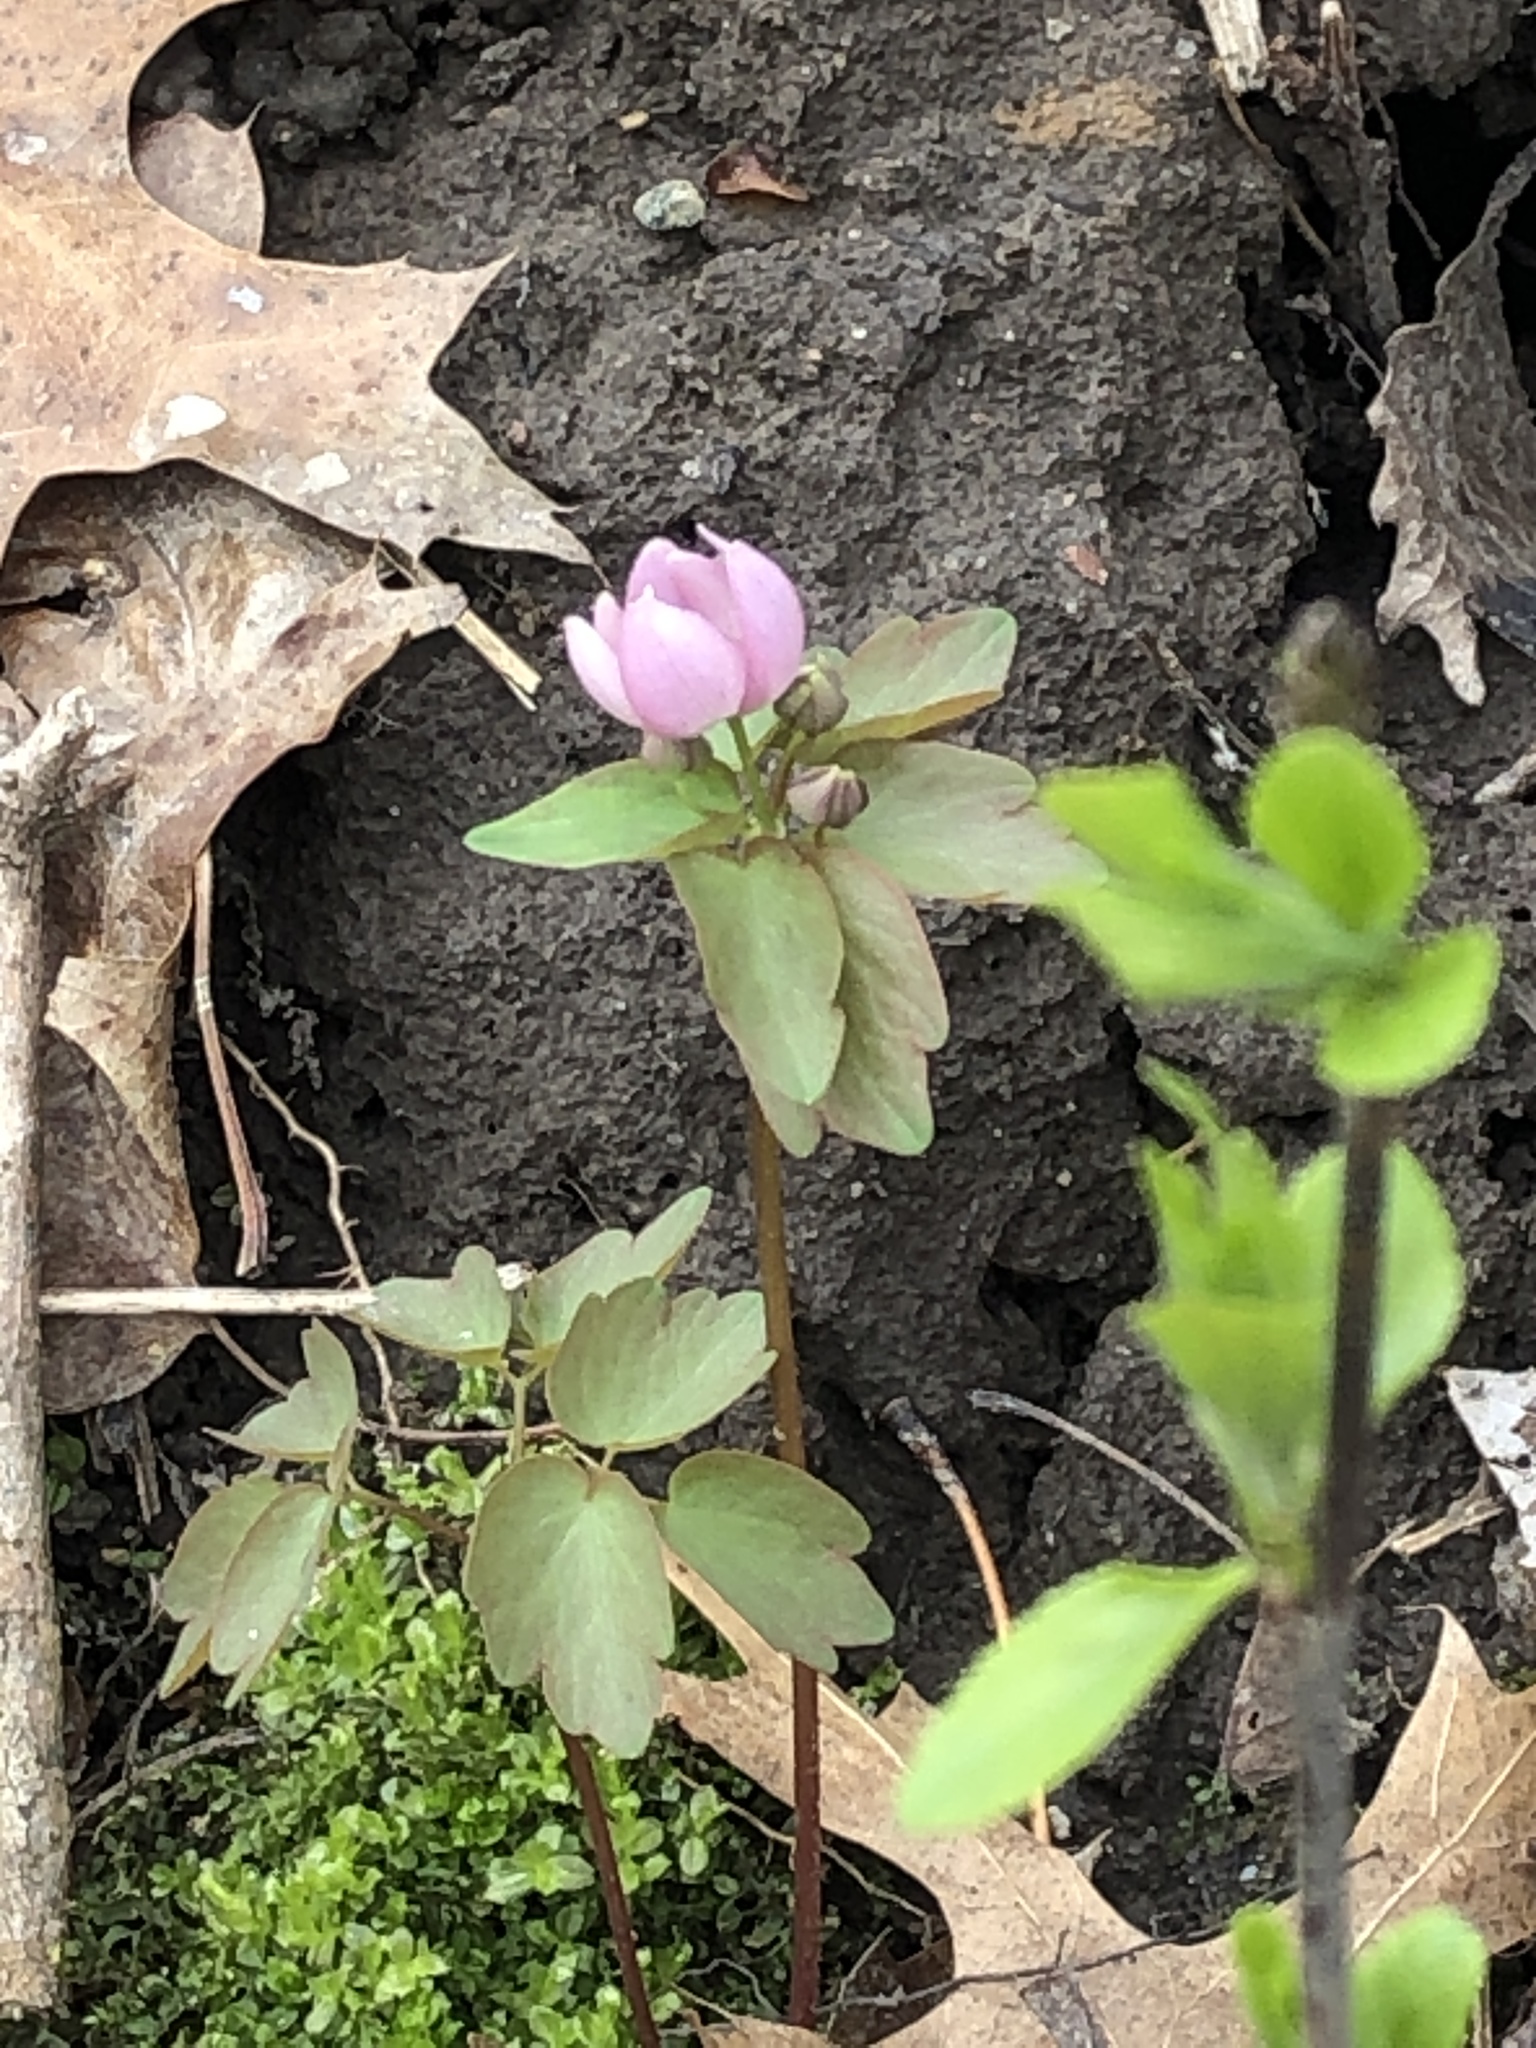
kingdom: Plantae
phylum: Tracheophyta
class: Magnoliopsida
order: Ranunculales
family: Ranunculaceae
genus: Thalictrum
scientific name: Thalictrum thalictroides
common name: Rue-anemone
